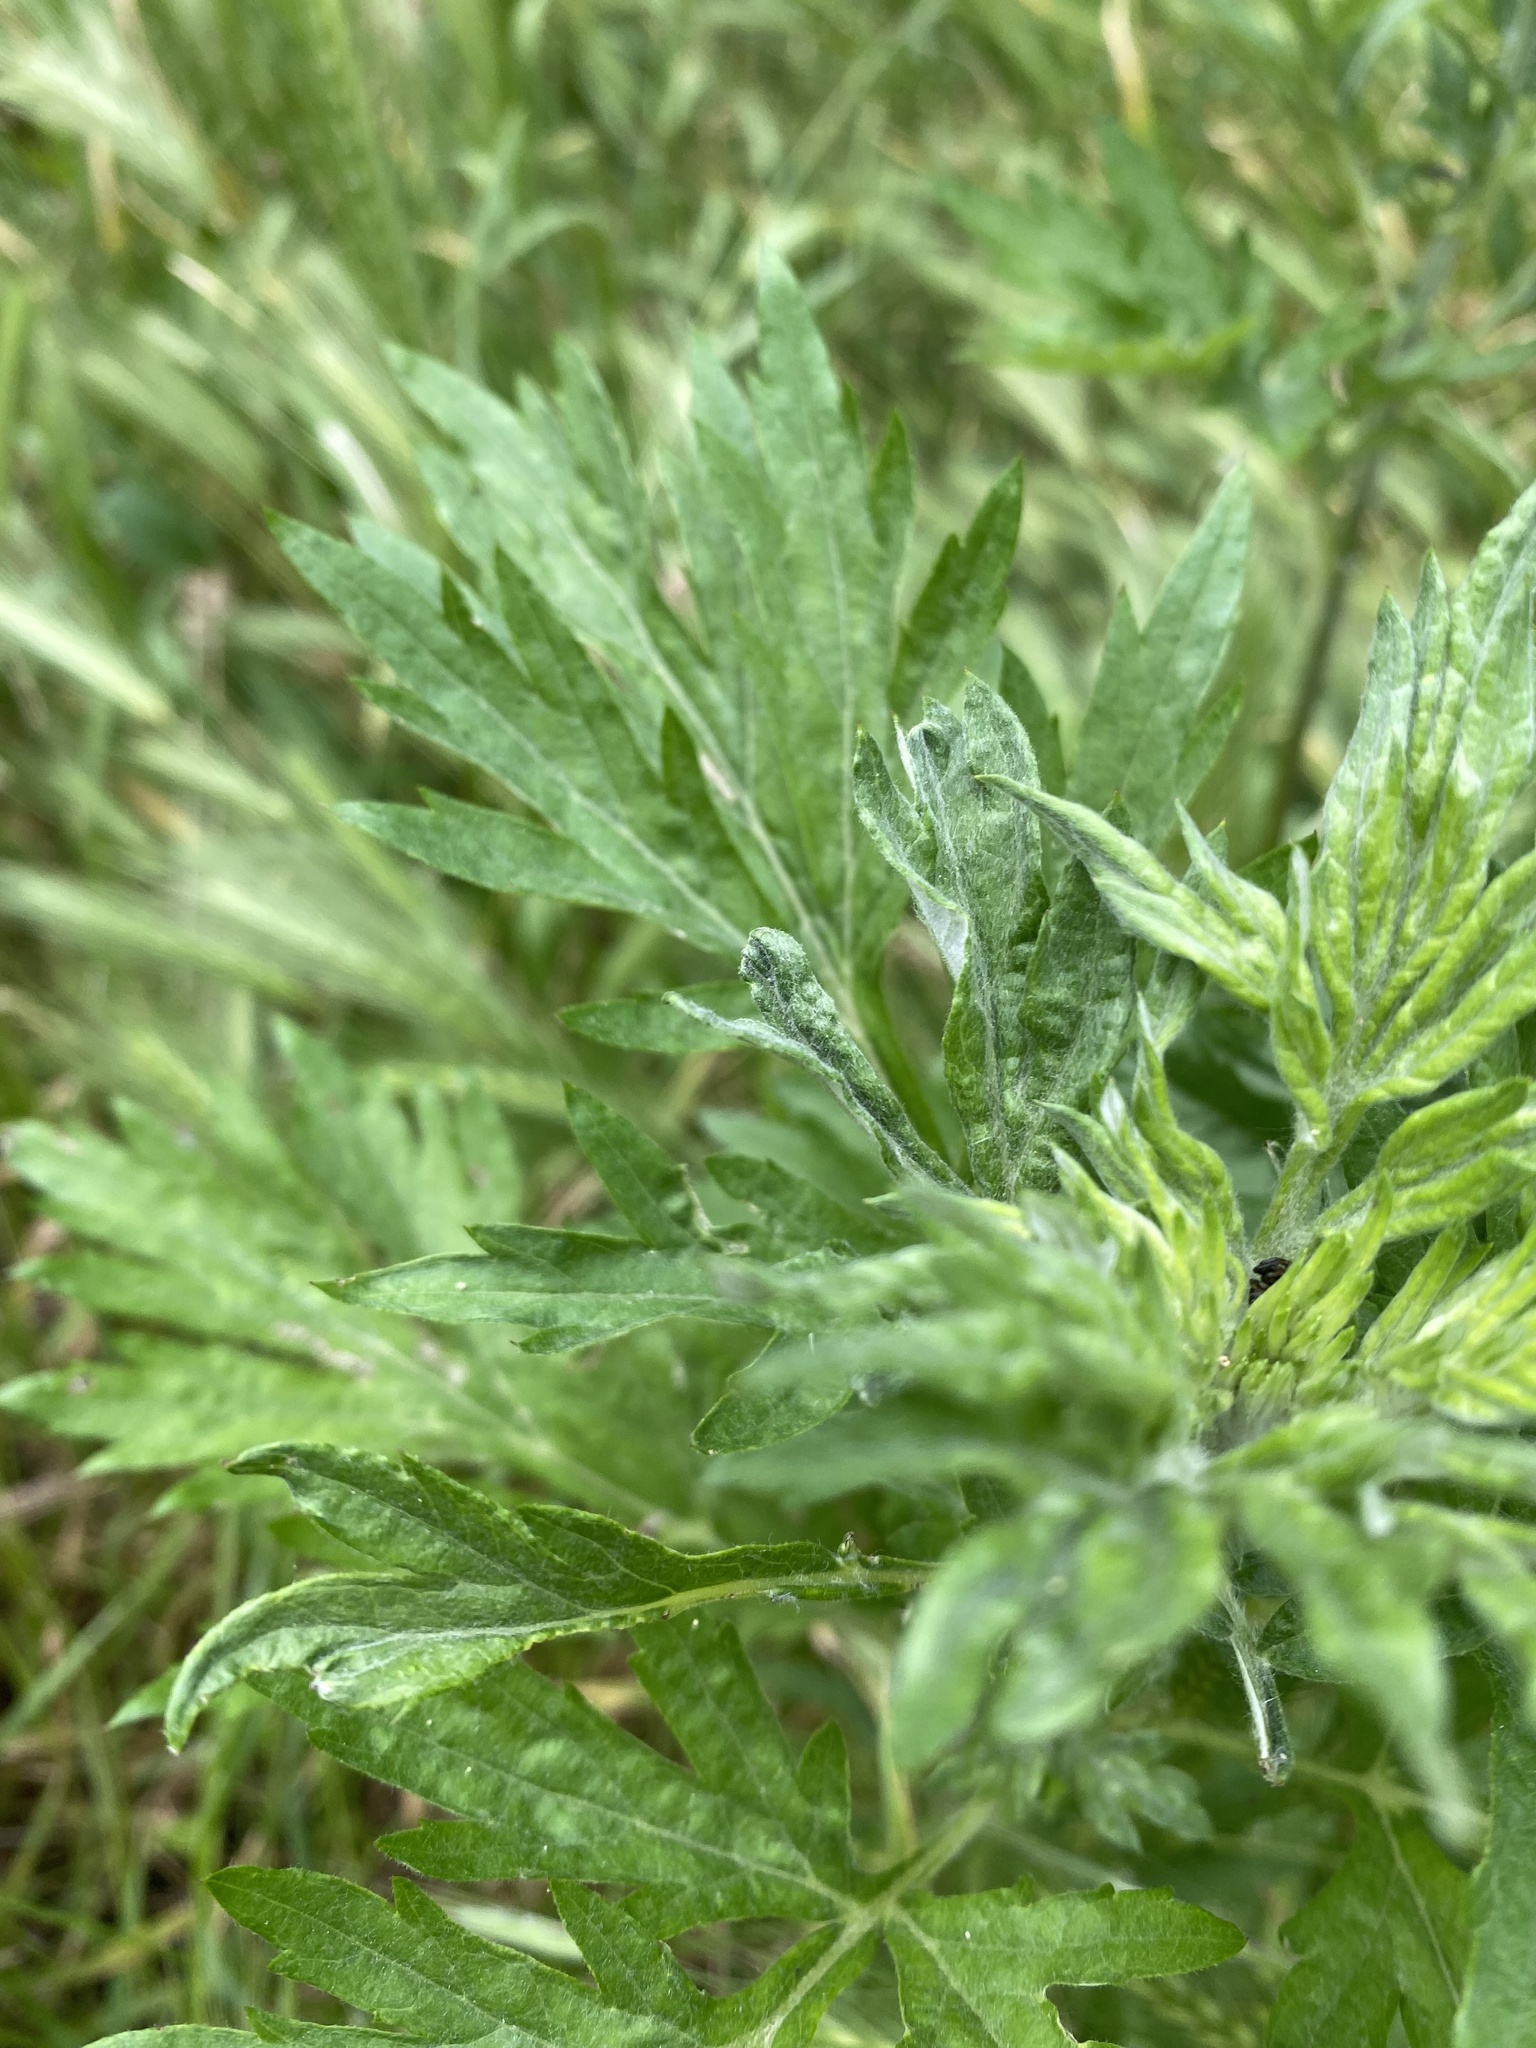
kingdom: Plantae
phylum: Tracheophyta
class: Magnoliopsida
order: Asterales
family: Asteraceae
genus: Artemisia
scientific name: Artemisia vulgaris
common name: Mugwort
